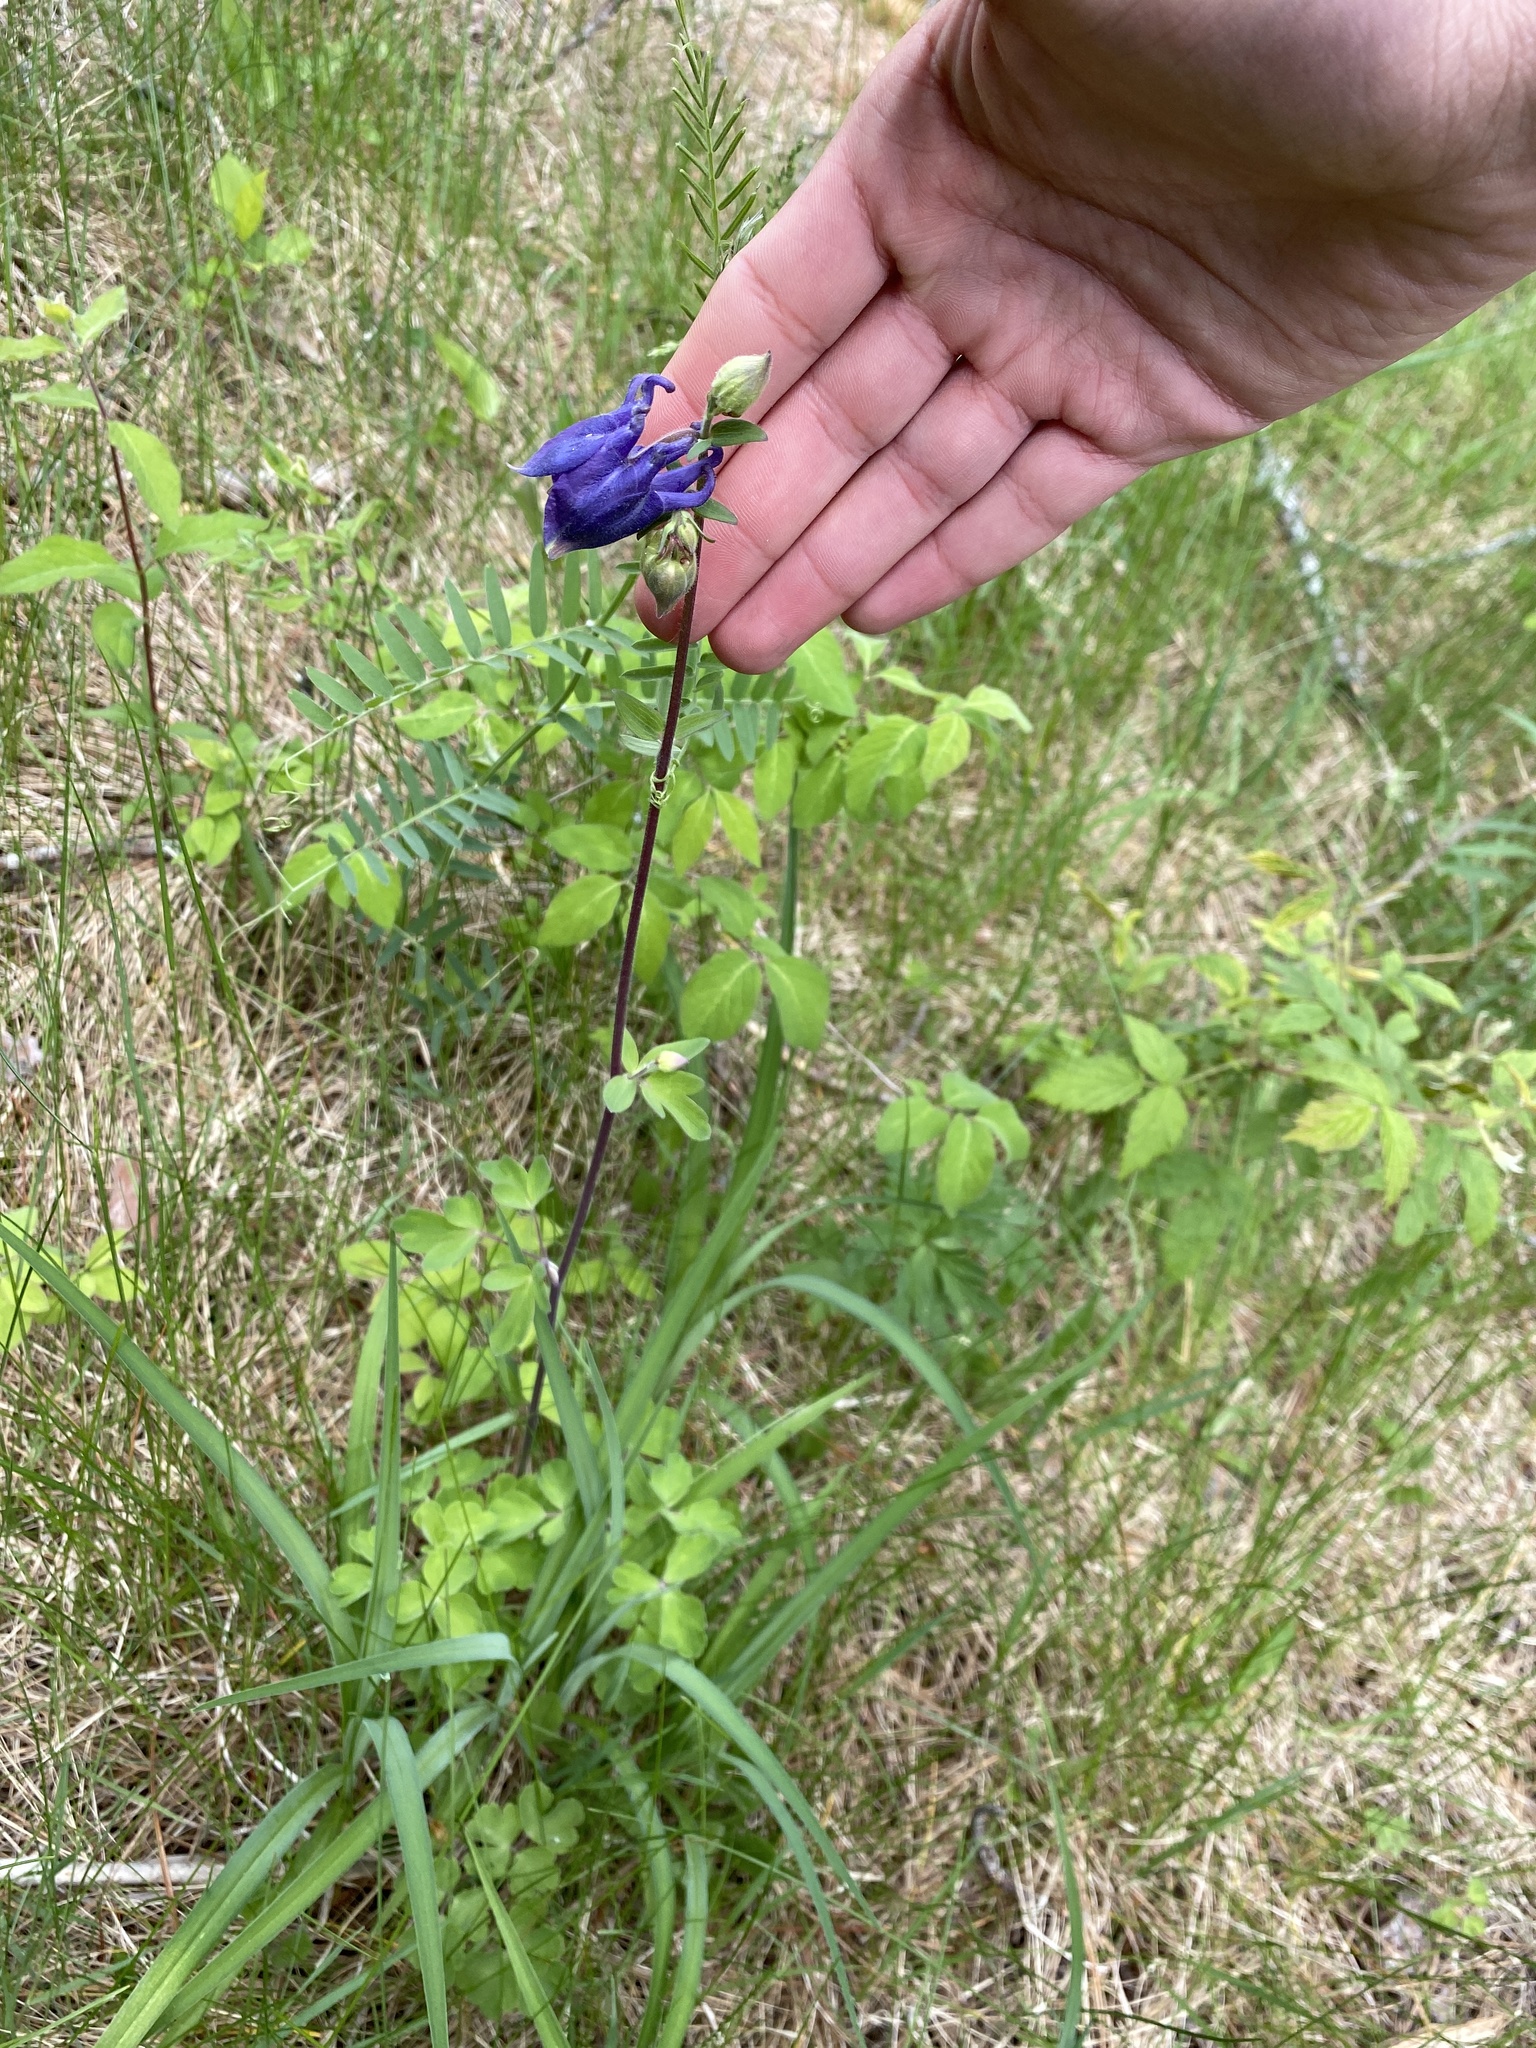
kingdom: Plantae
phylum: Tracheophyta
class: Magnoliopsida
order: Ranunculales
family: Ranunculaceae
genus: Aquilegia
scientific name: Aquilegia vulgaris
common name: Columbine
